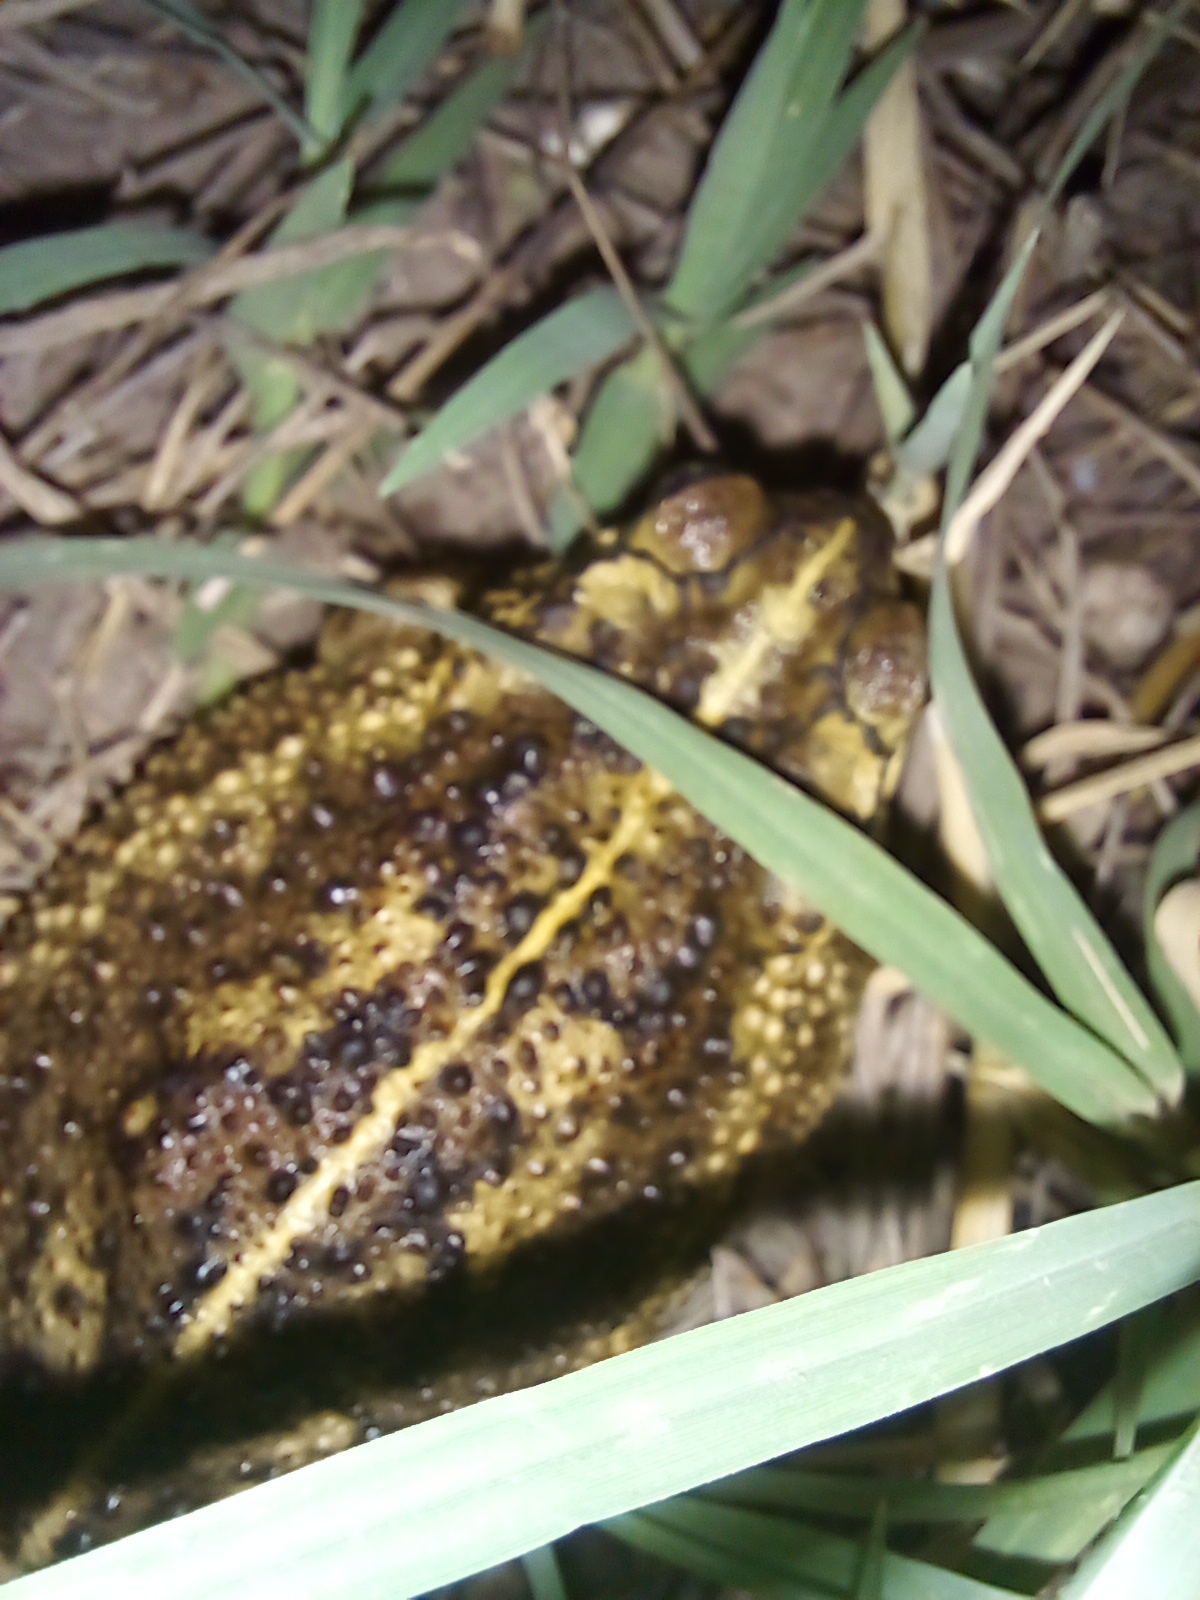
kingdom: Animalia
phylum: Chordata
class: Amphibia
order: Anura
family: Bufonidae
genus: Rhinella
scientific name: Rhinella dorbignyi
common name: D´orbigny’s toad
